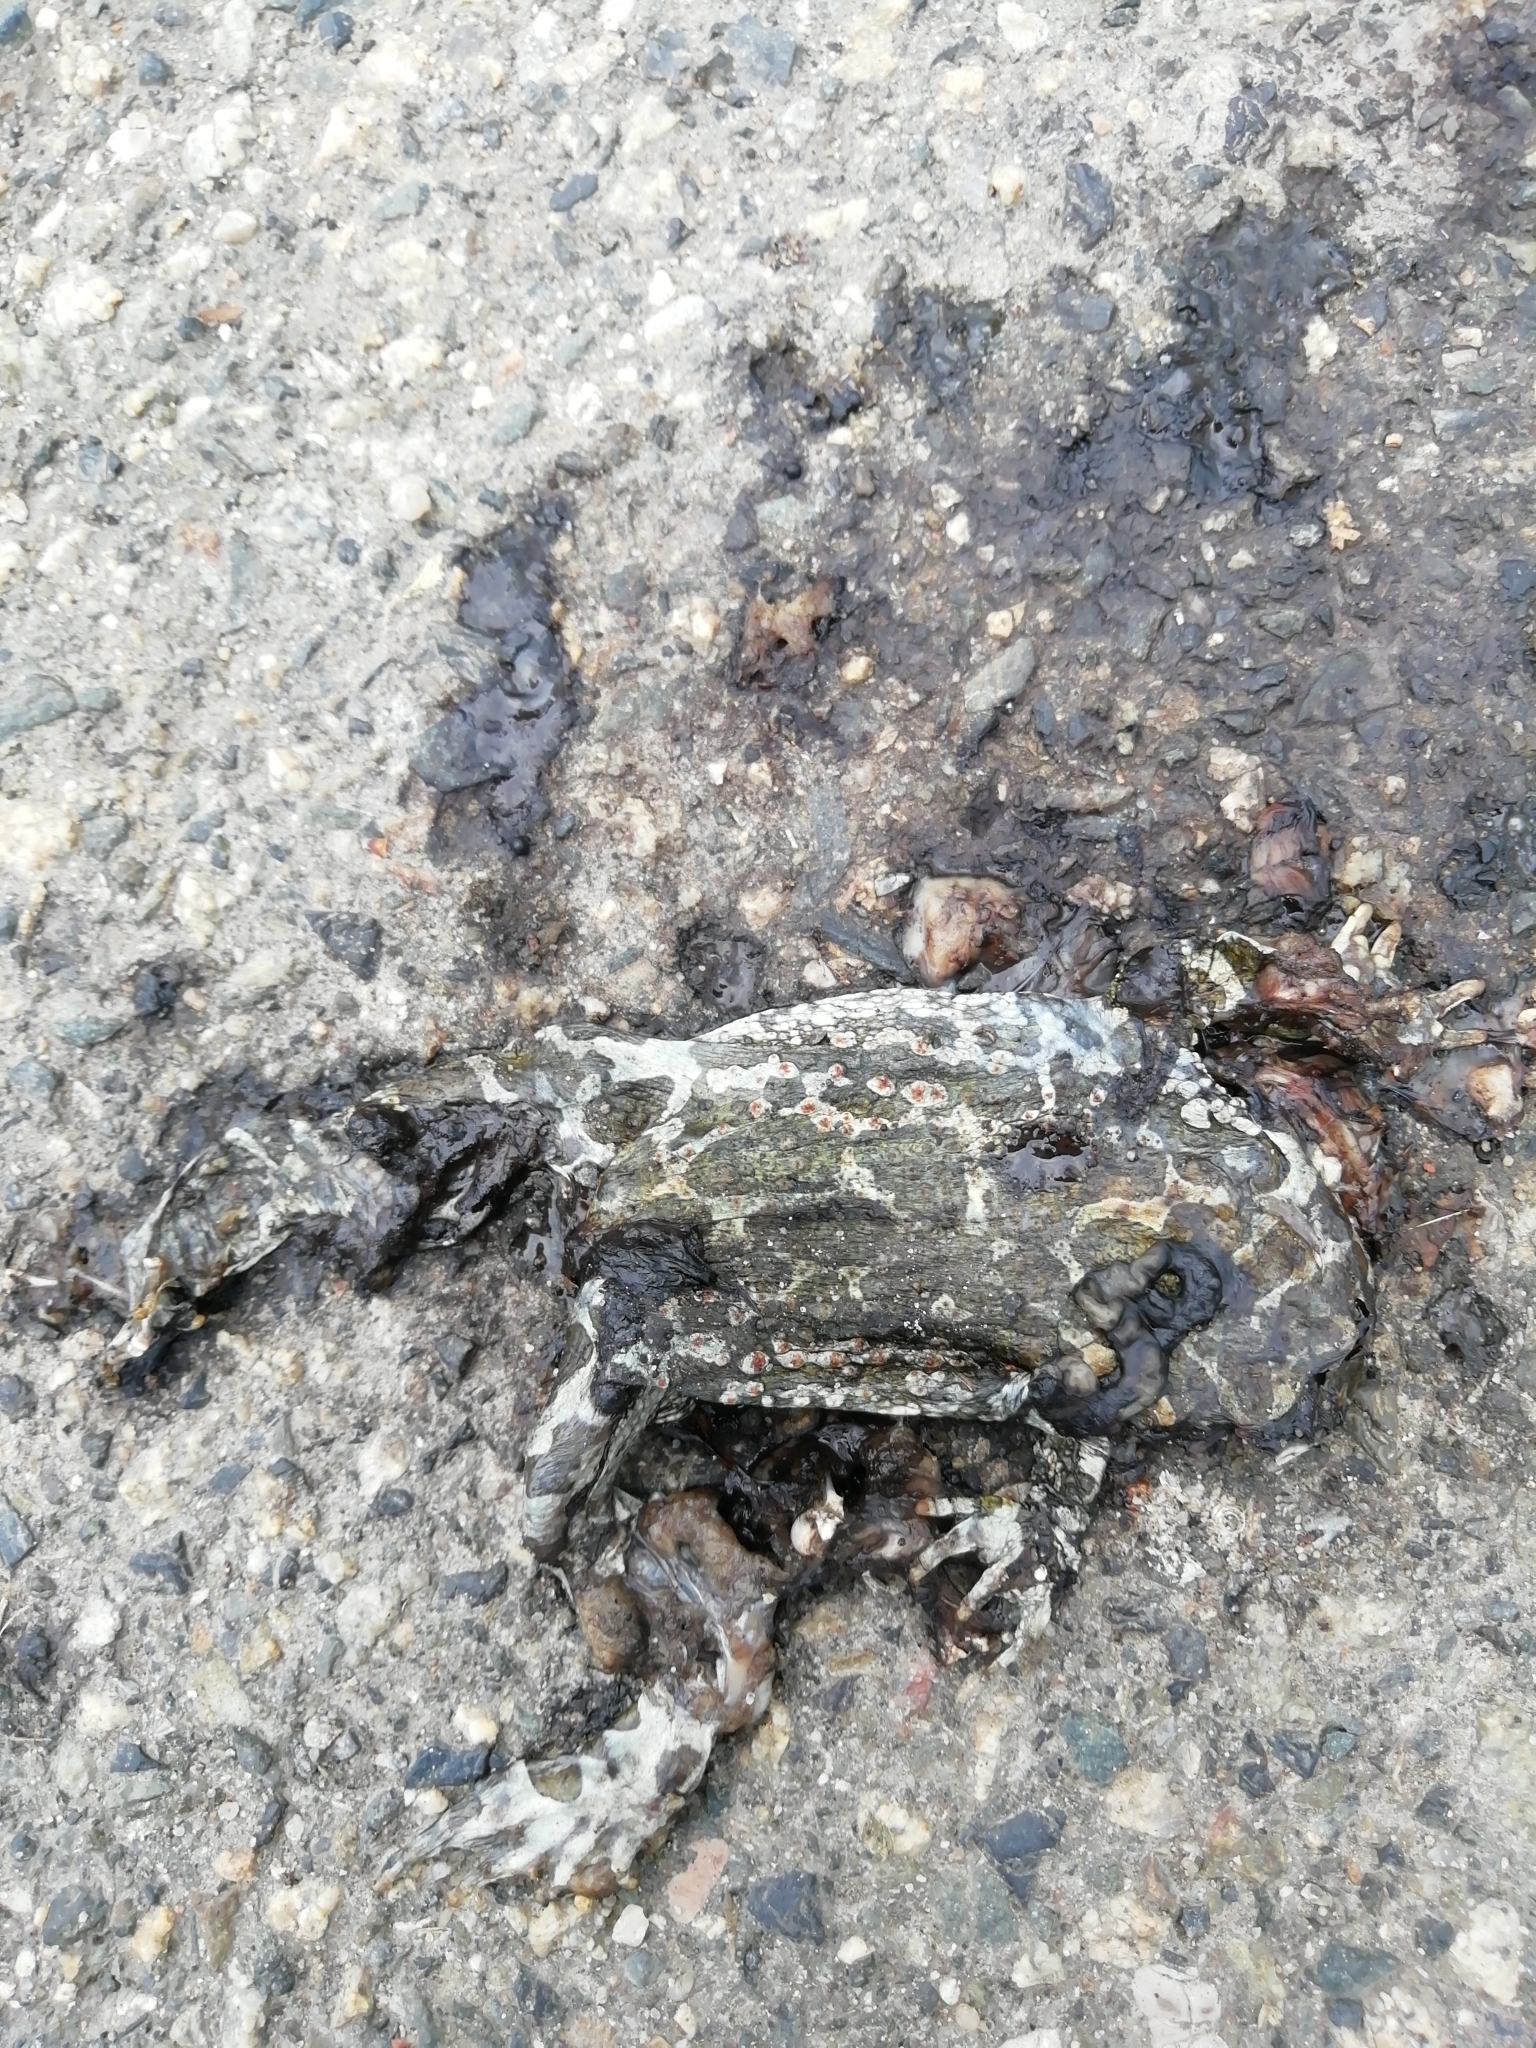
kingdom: Animalia
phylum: Chordata
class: Amphibia
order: Anura
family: Bufonidae
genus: Bufotes
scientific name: Bufotes viridis
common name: European green toad
